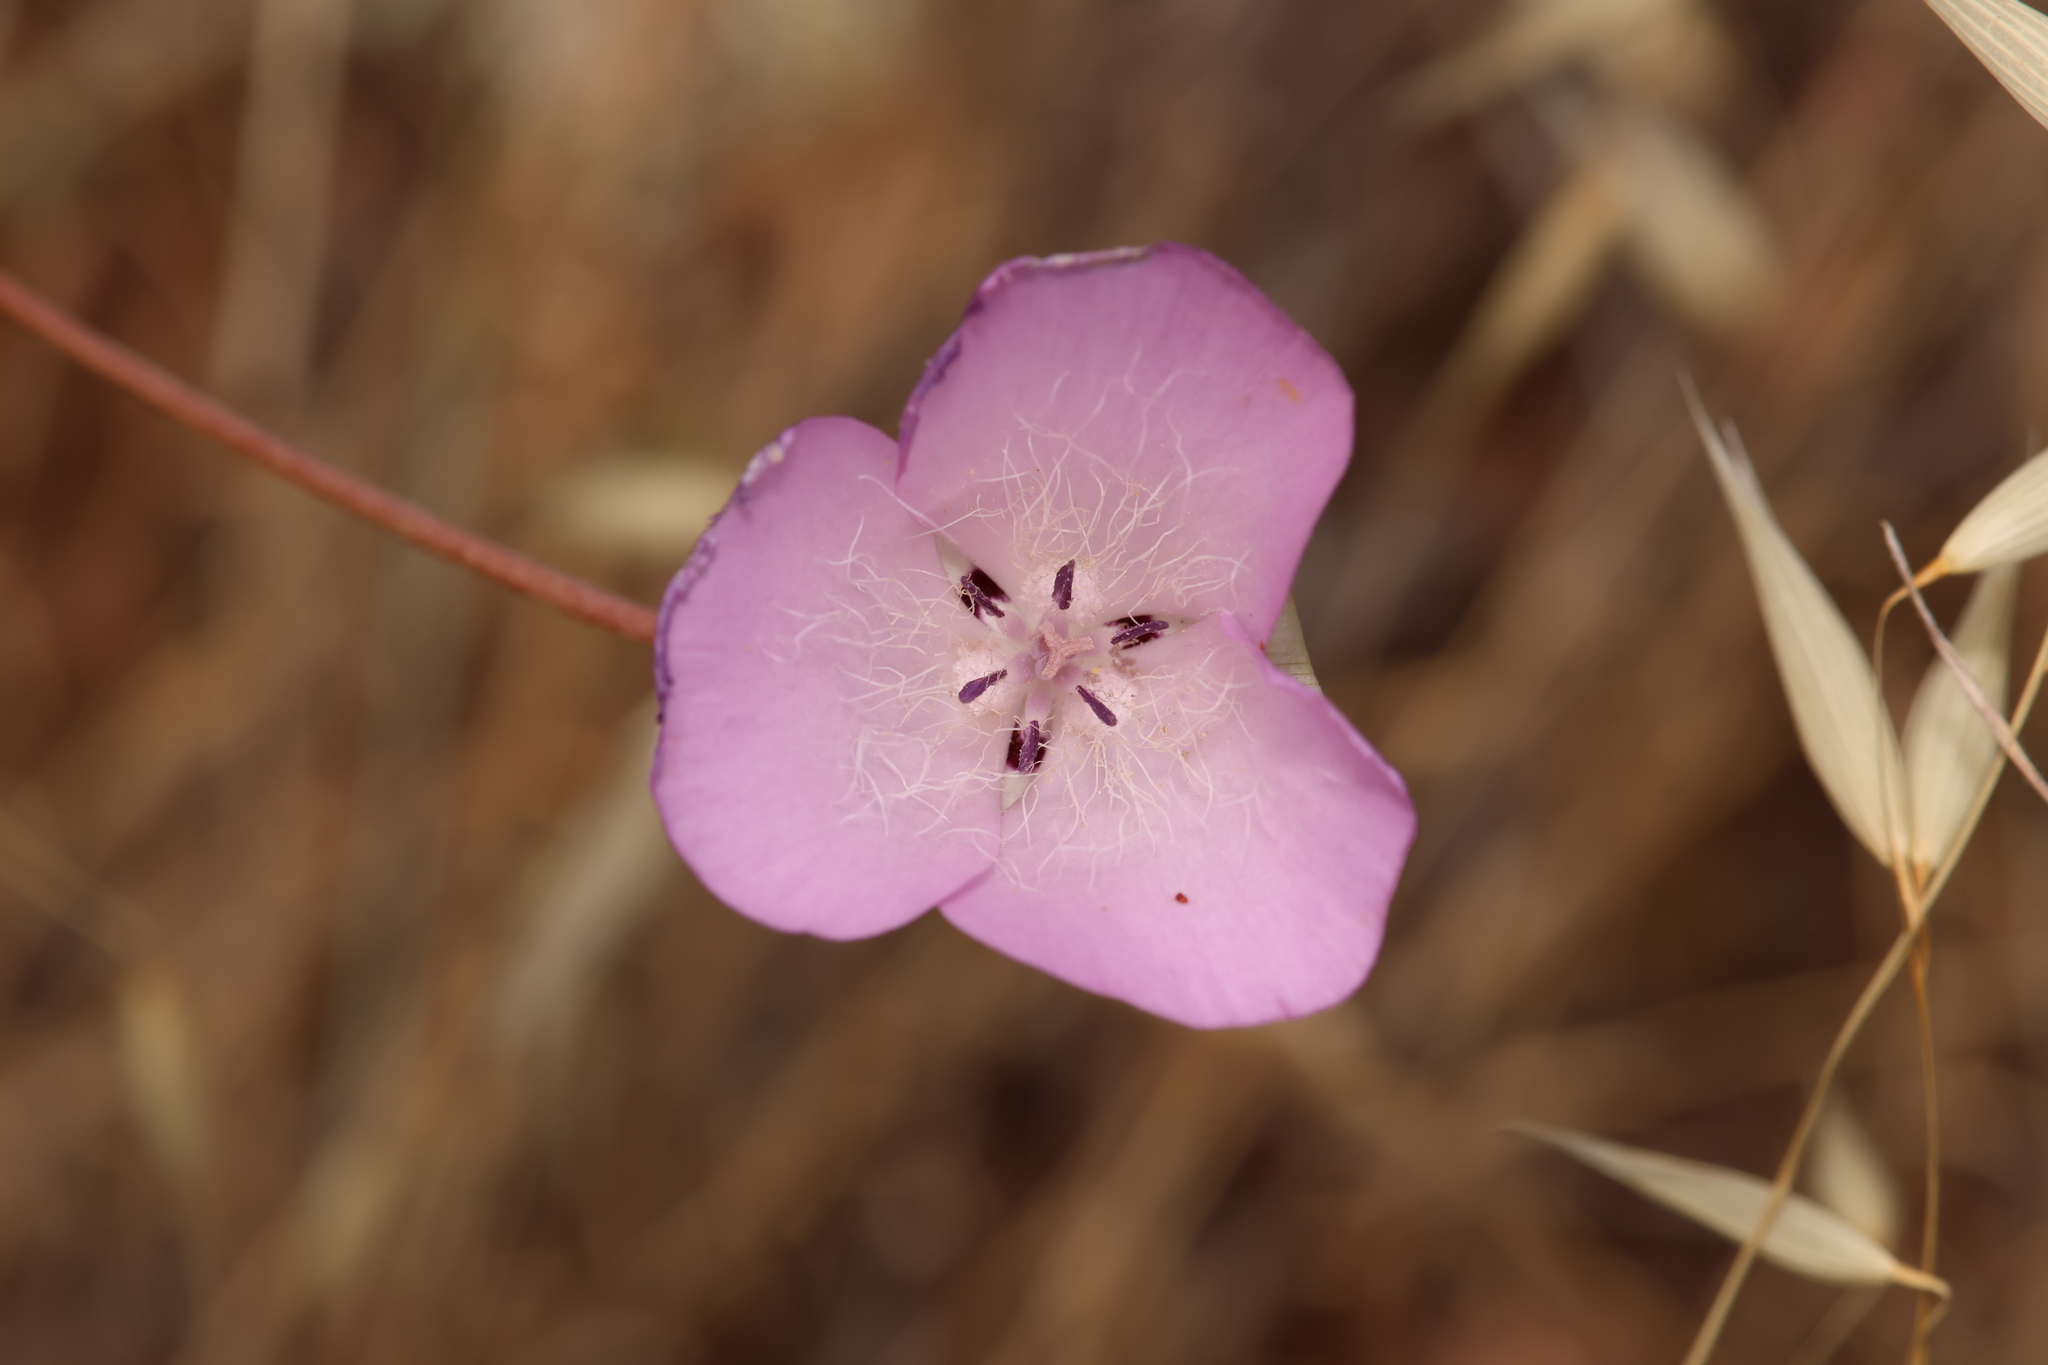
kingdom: Plantae
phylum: Tracheophyta
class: Liliopsida
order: Liliales
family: Liliaceae
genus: Calochortus
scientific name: Calochortus splendens
